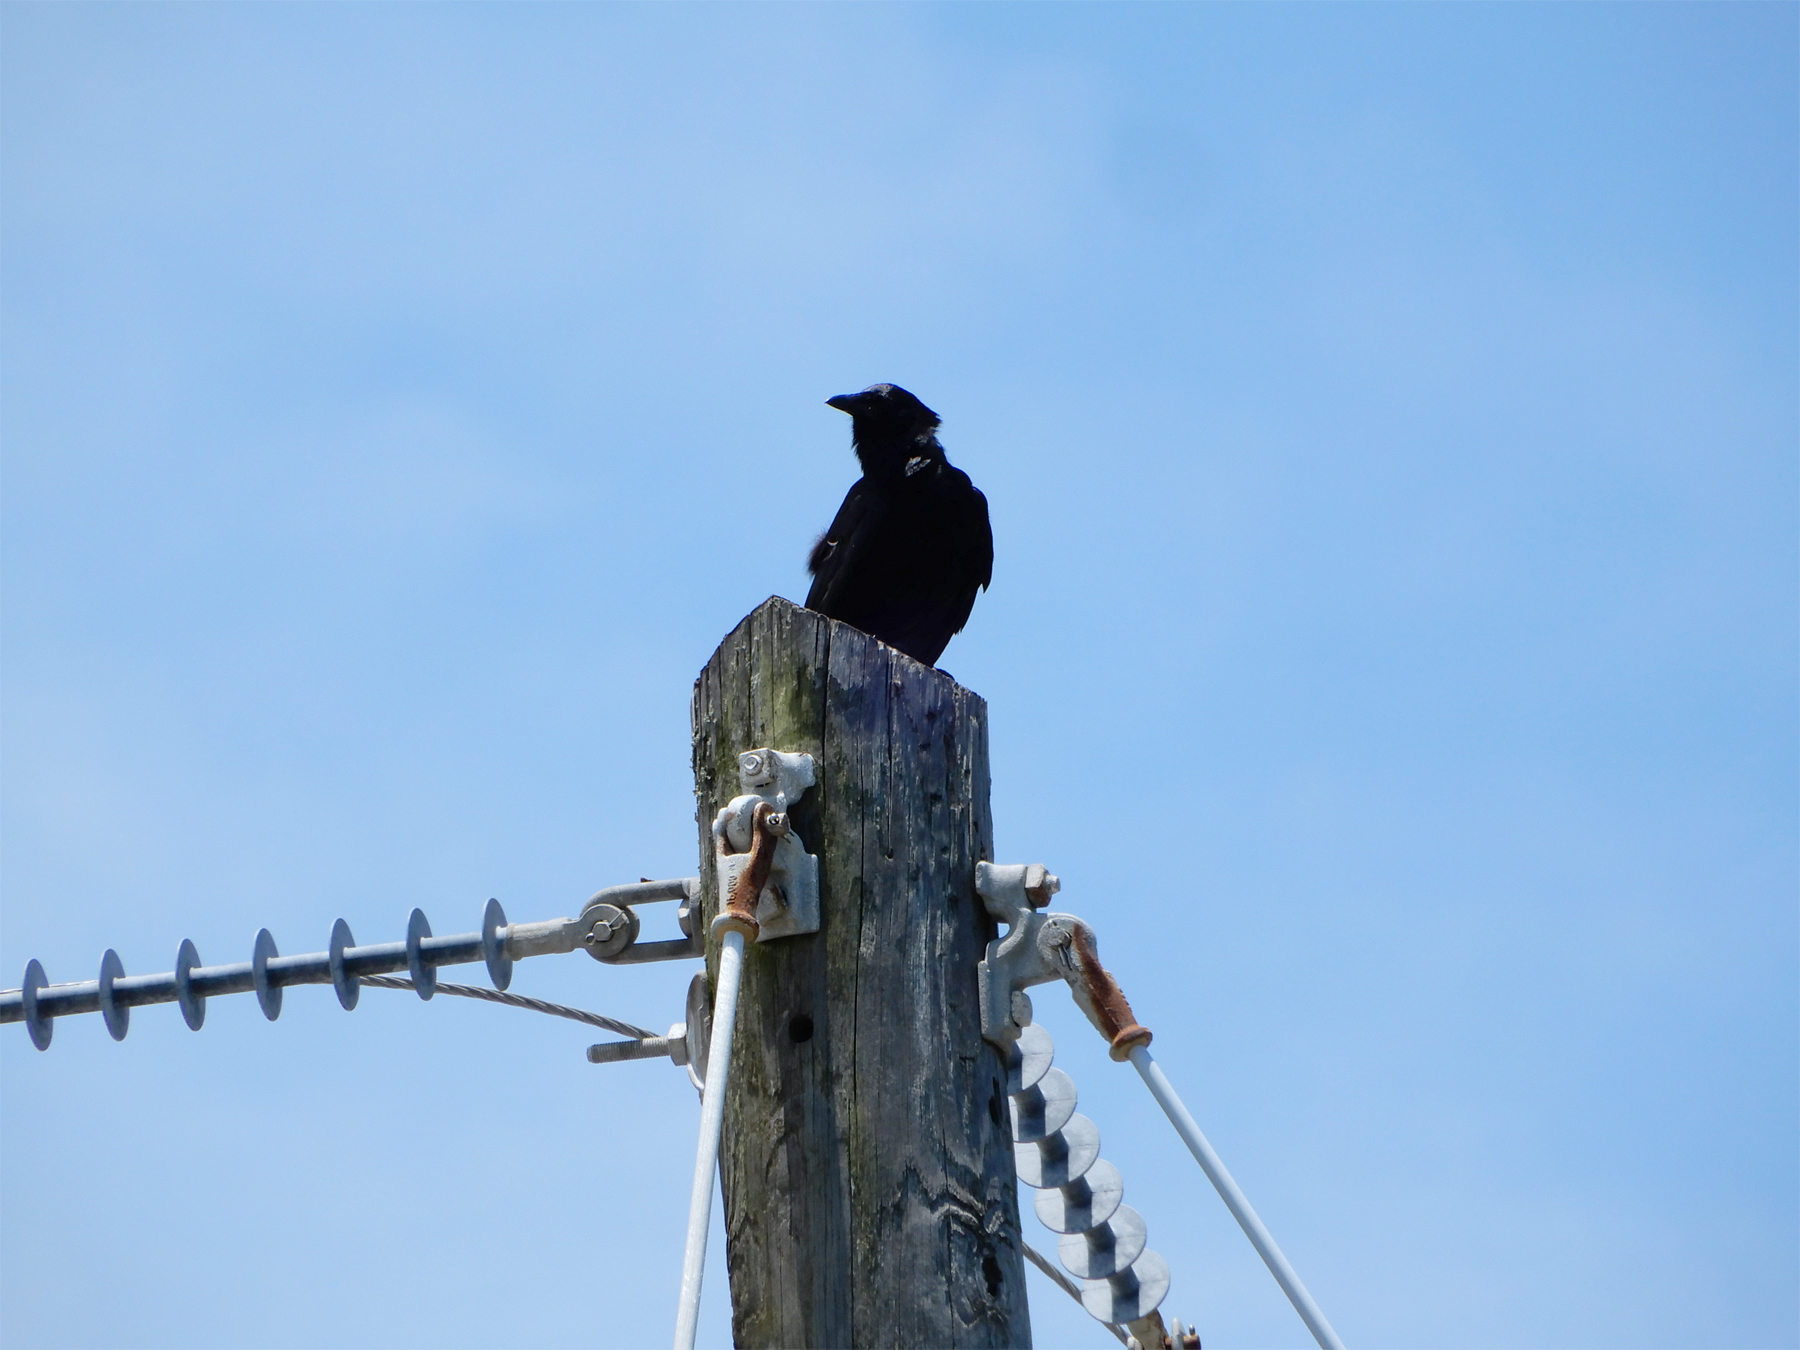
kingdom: Animalia
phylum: Chordata
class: Aves
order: Passeriformes
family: Corvidae
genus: Corvus
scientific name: Corvus ossifragus
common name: Fish crow
